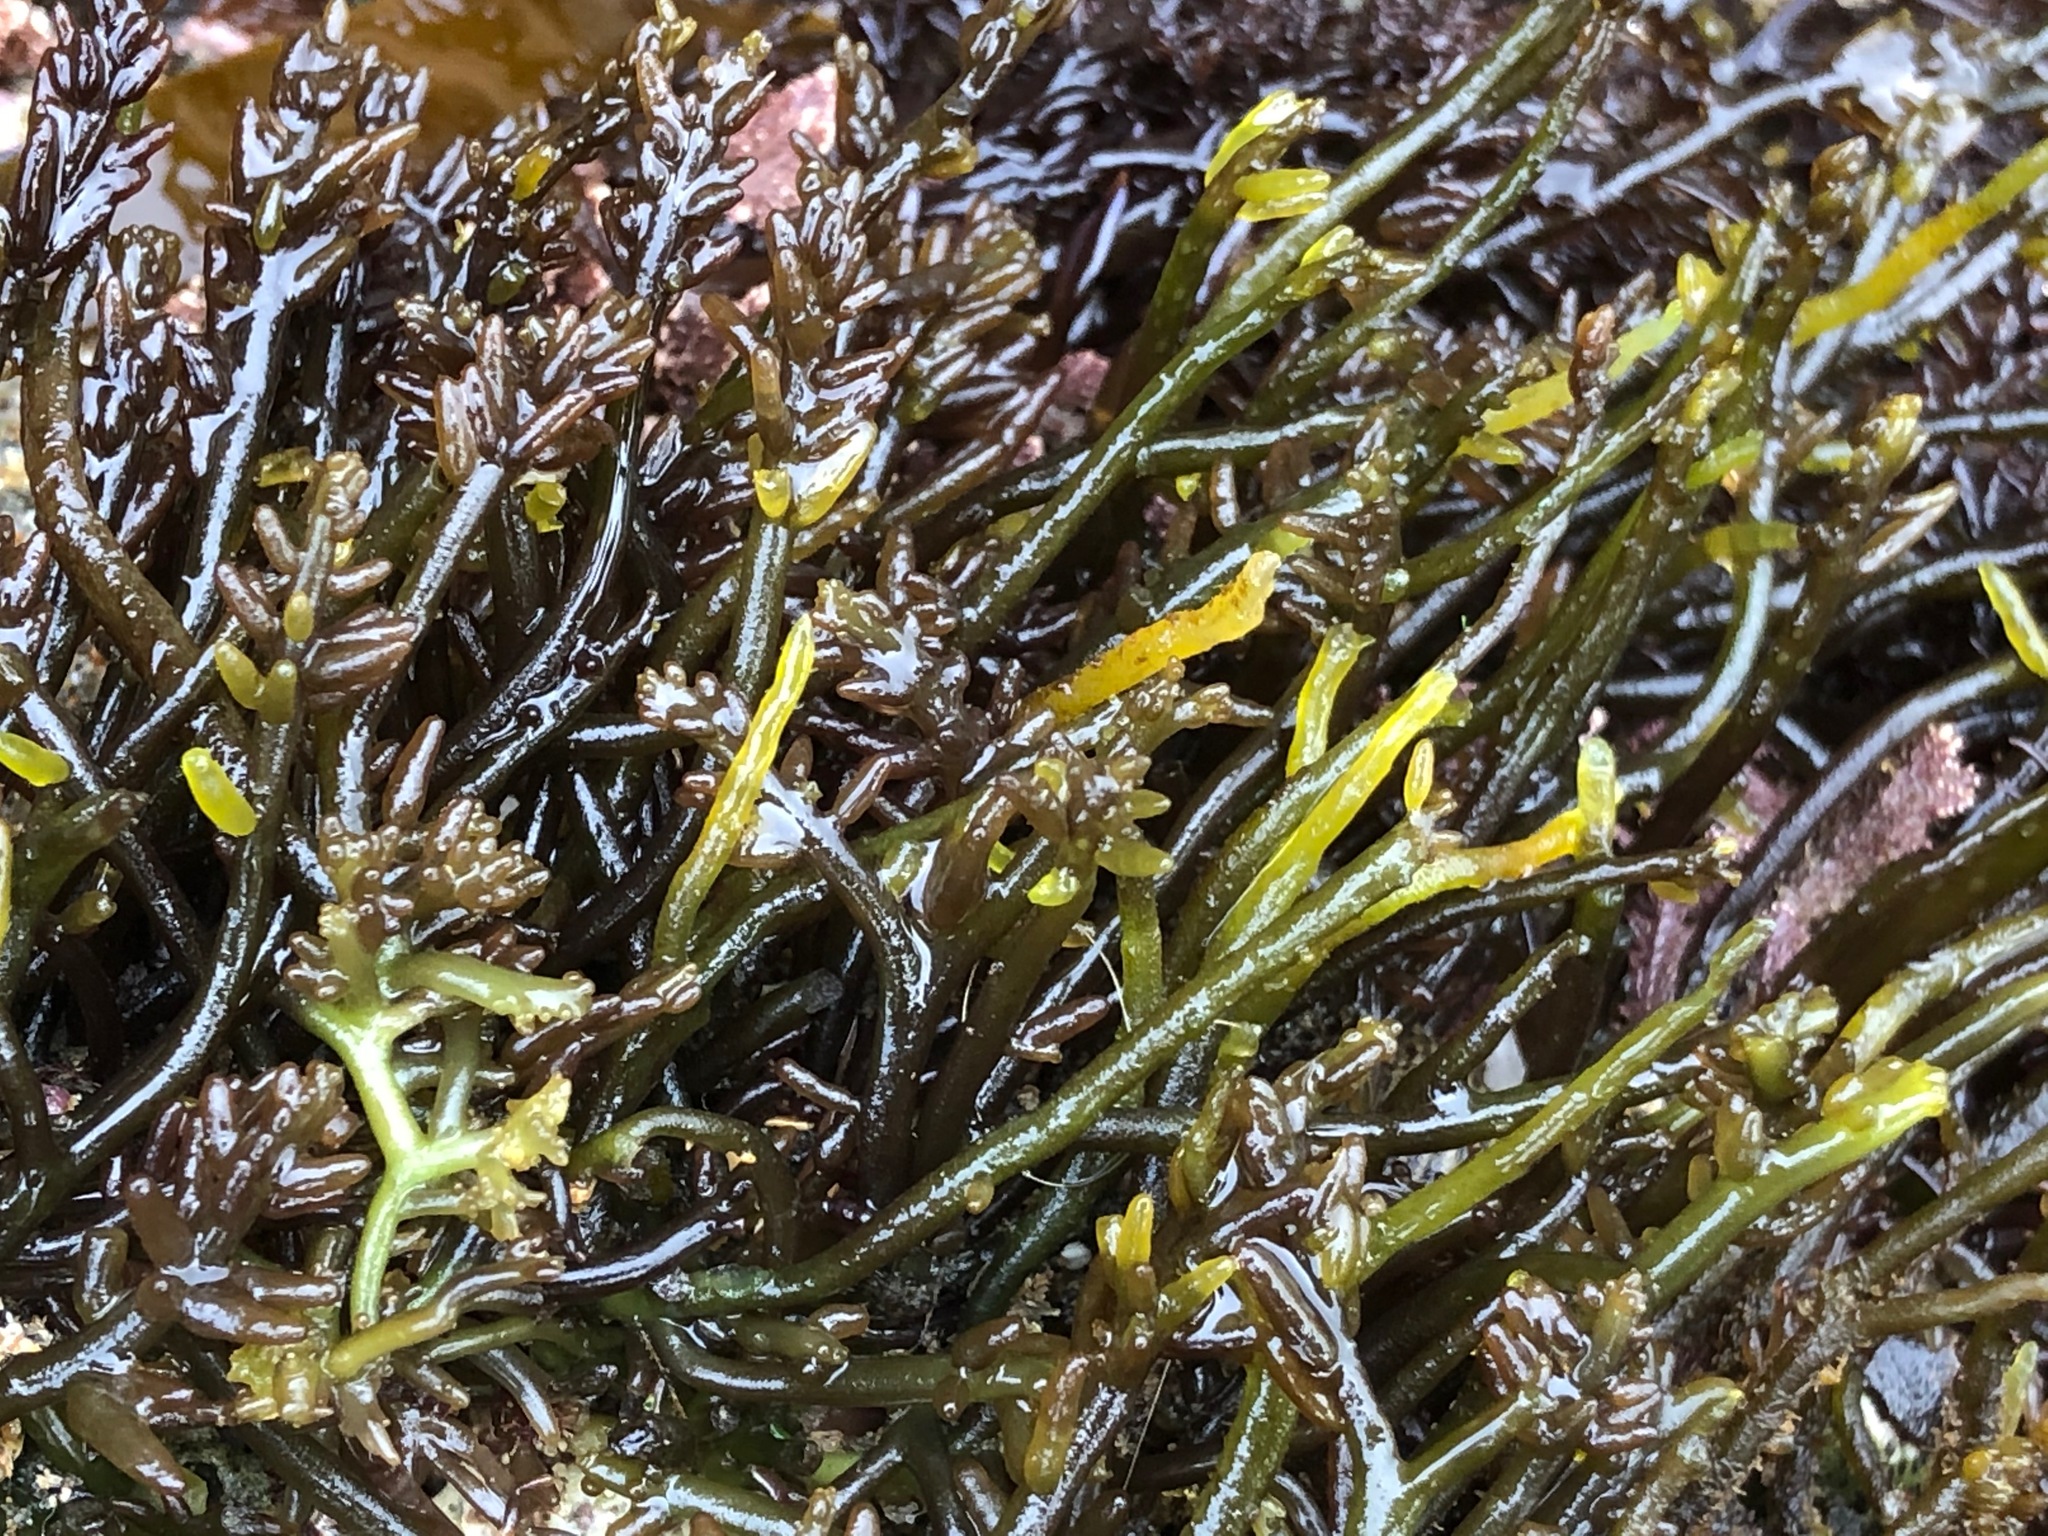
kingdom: Plantae
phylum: Rhodophyta
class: Florideophyceae
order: Rhodymeniales
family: Champiaceae
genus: Neogastroclonium
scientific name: Neogastroclonium subarticulatum
